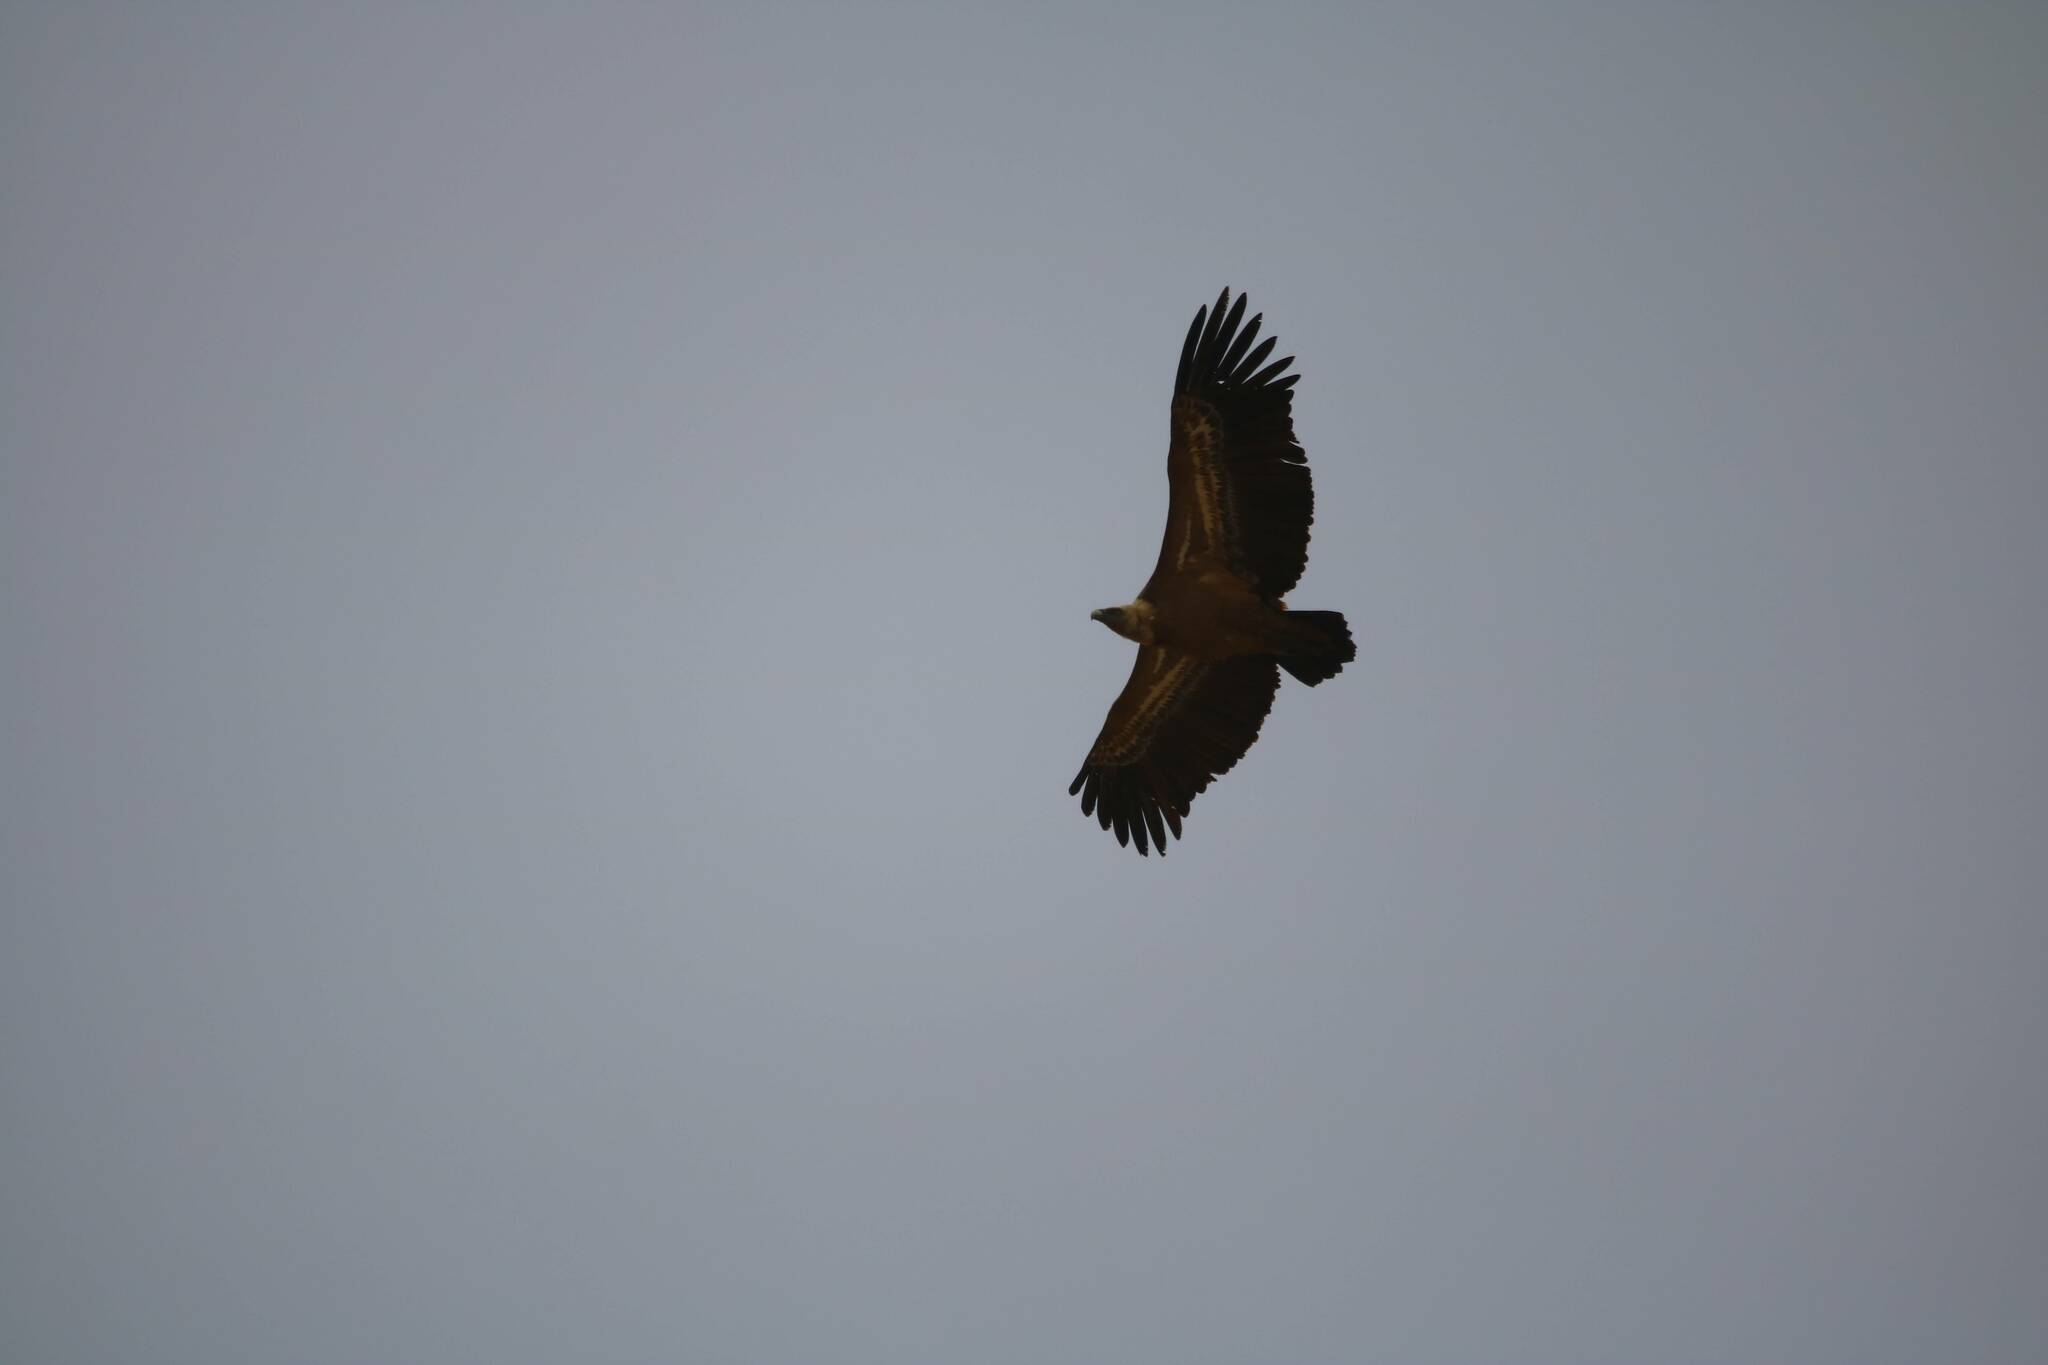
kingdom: Animalia
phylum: Chordata
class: Aves
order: Accipitriformes
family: Accipitridae
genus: Gyps
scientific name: Gyps fulvus
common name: Griffon vulture
